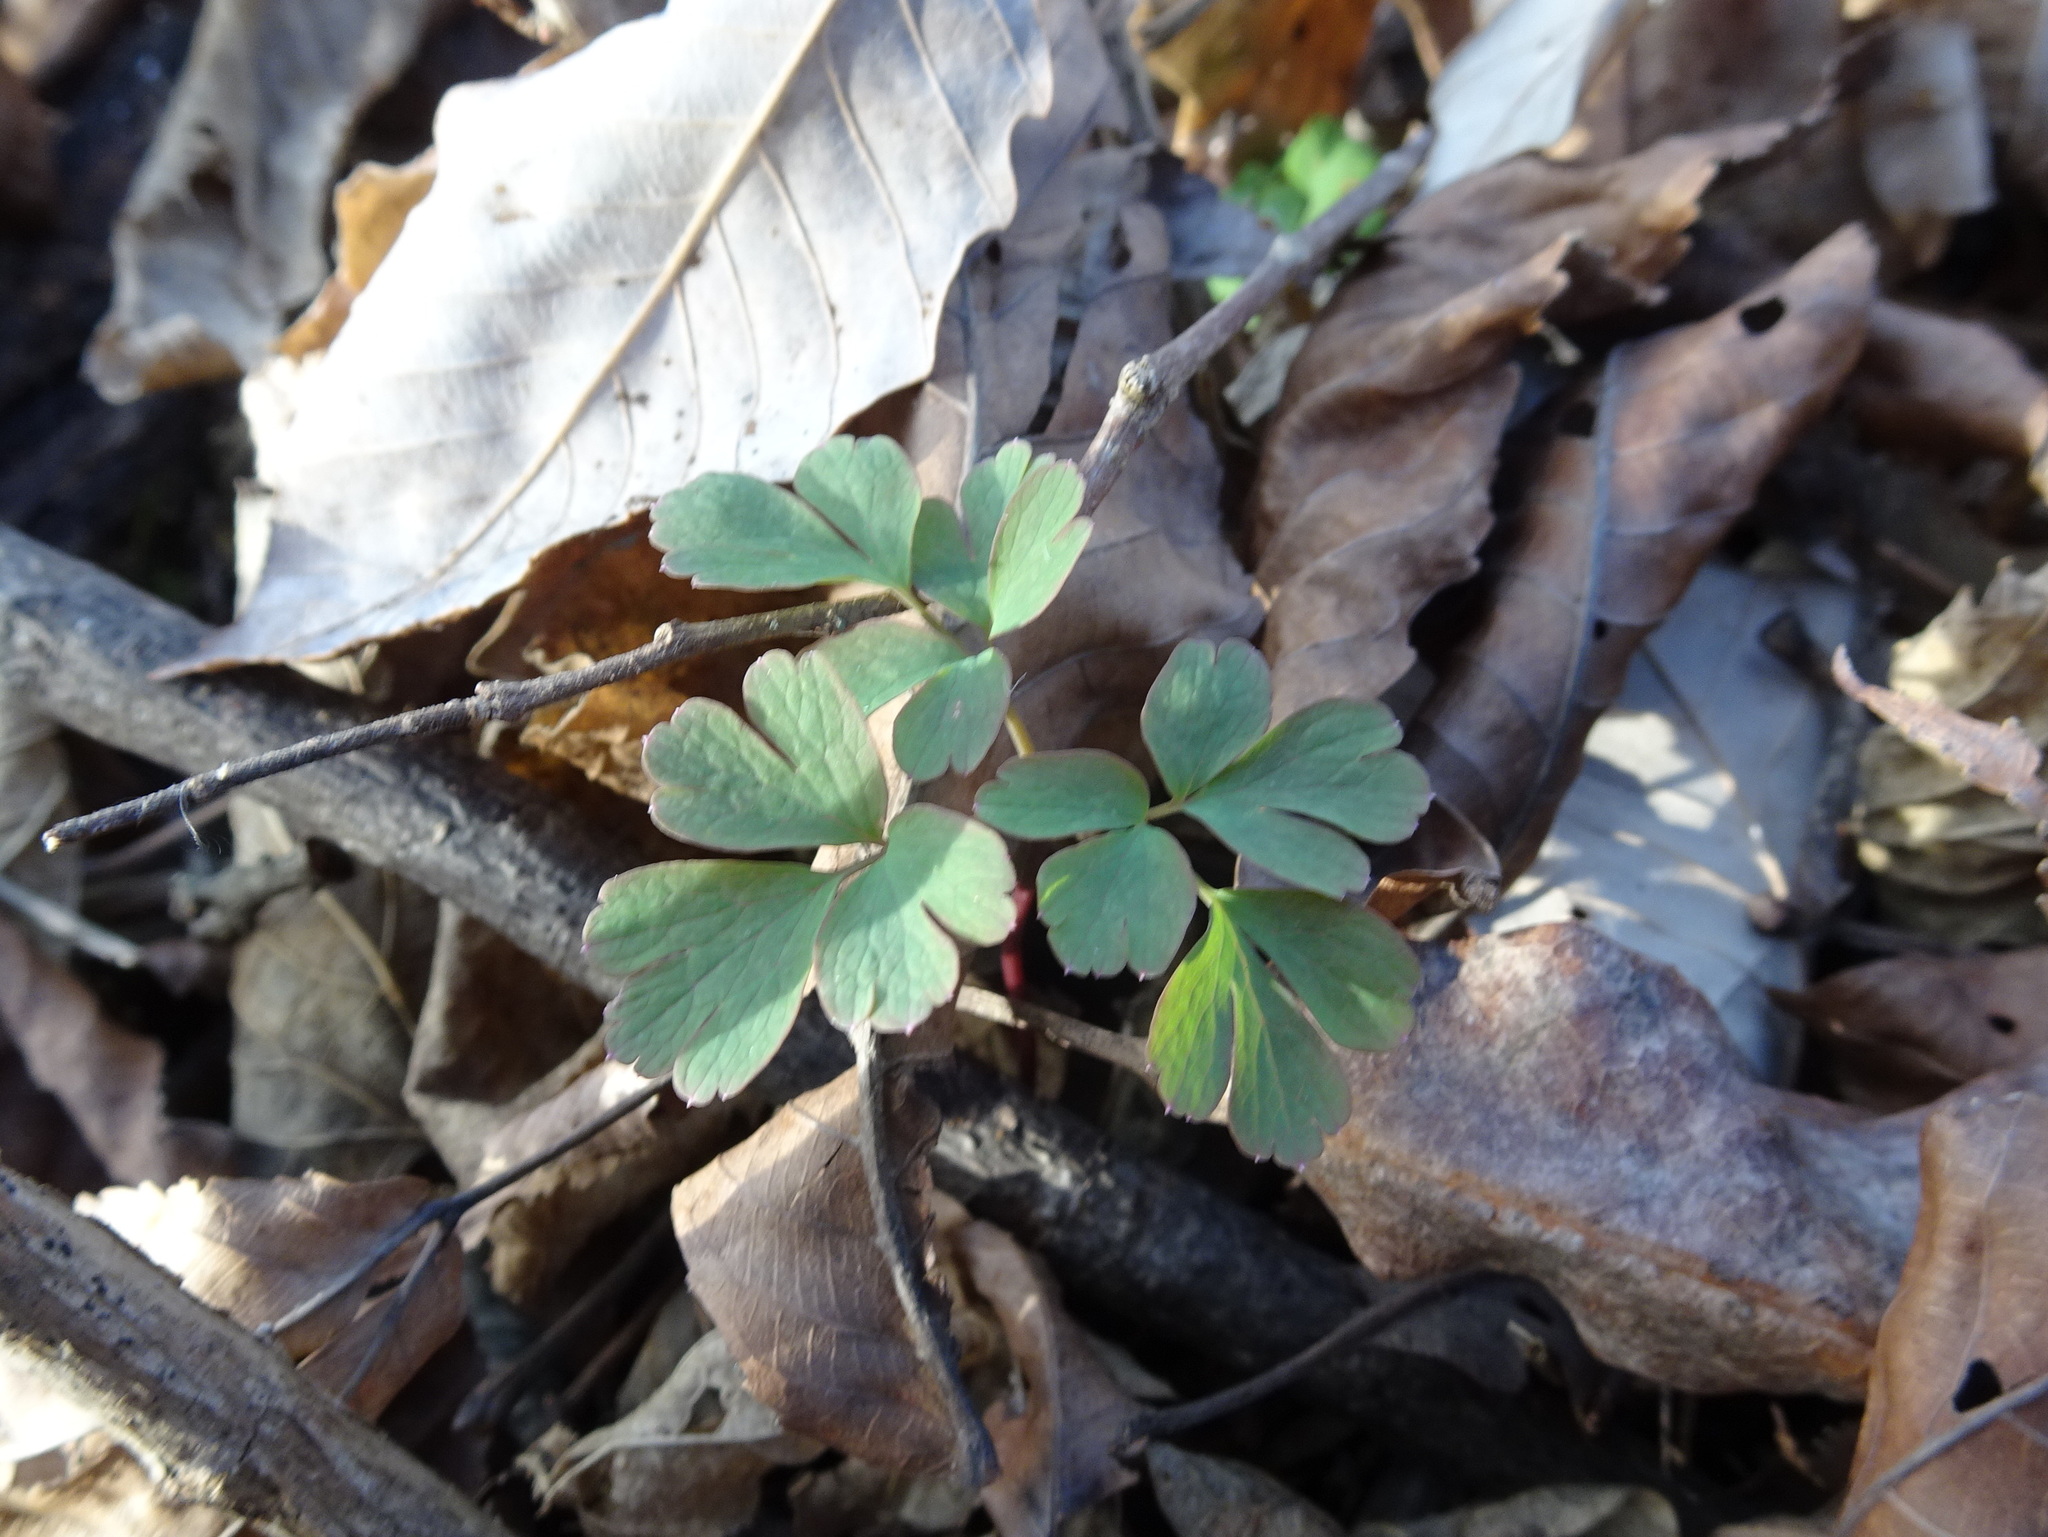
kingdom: Plantae
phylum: Tracheophyta
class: Magnoliopsida
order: Ranunculales
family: Ranunculaceae
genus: Enemion
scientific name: Enemion biternatum
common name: Eastern false rue-anemone
